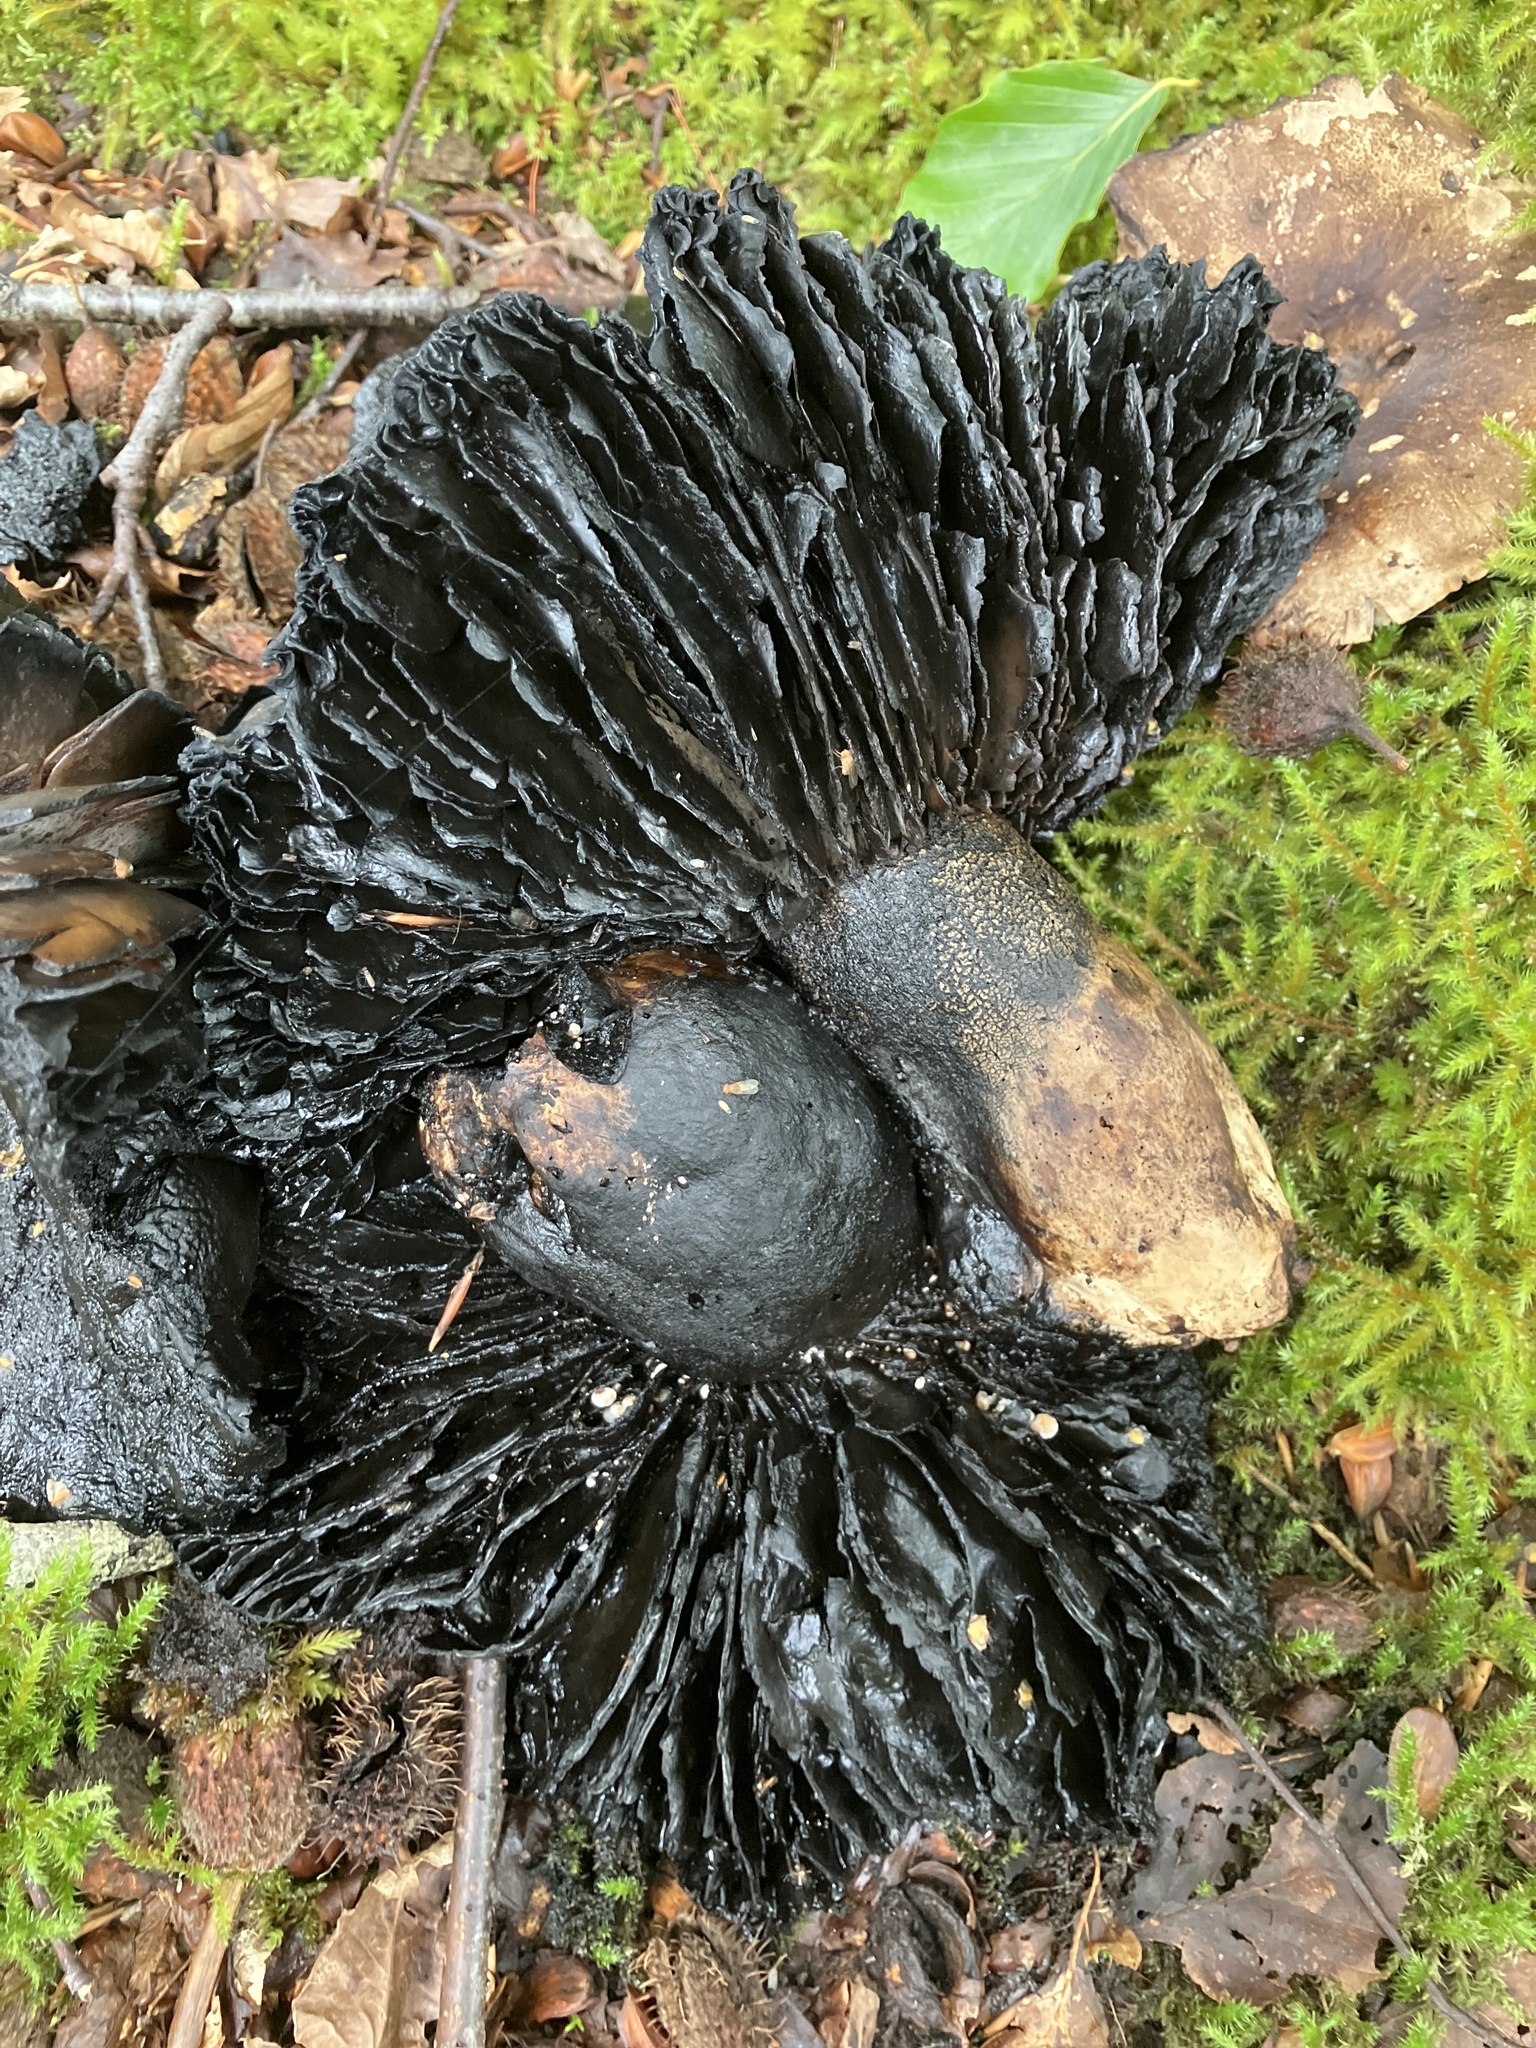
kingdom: Fungi
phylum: Basidiomycota
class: Agaricomycetes
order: Russulales
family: Russulaceae
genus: Russula
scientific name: Russula adusta
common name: Winecork brittlegill
